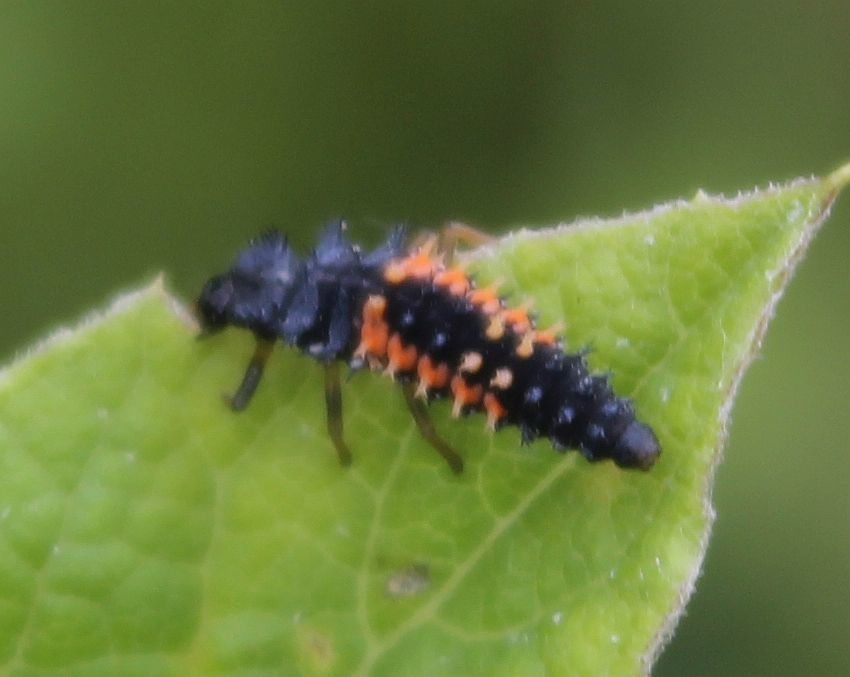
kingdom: Animalia
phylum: Arthropoda
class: Insecta
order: Coleoptera
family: Coccinellidae
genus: Harmonia
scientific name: Harmonia axyridis
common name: Harlequin ladybird
